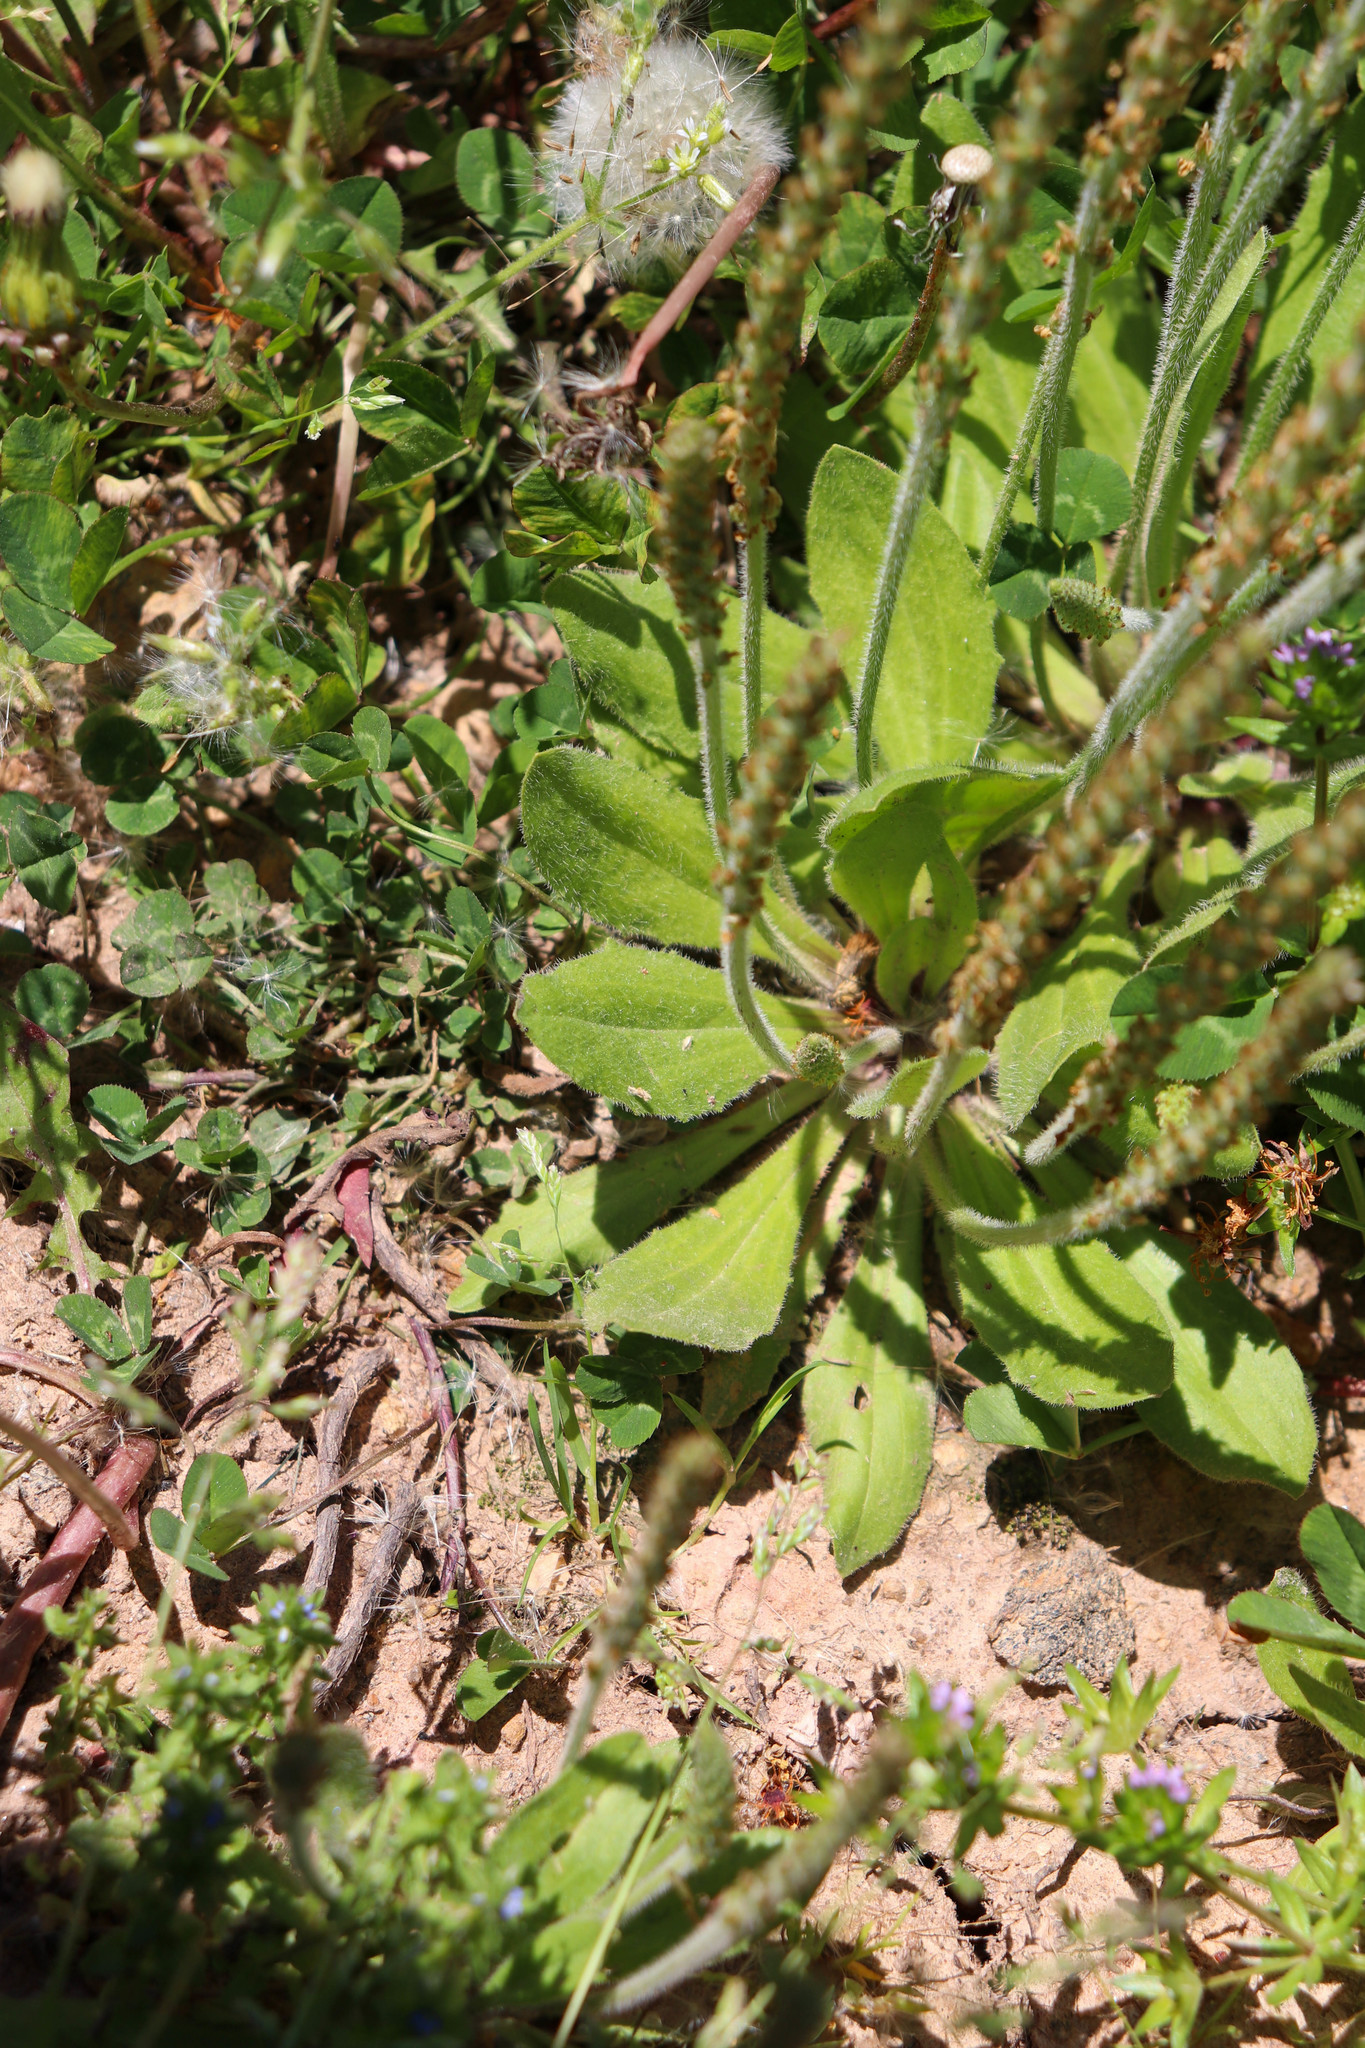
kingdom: Plantae
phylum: Tracheophyta
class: Magnoliopsida
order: Lamiales
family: Plantaginaceae
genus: Plantago
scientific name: Plantago virginica
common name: Hoary plantain
